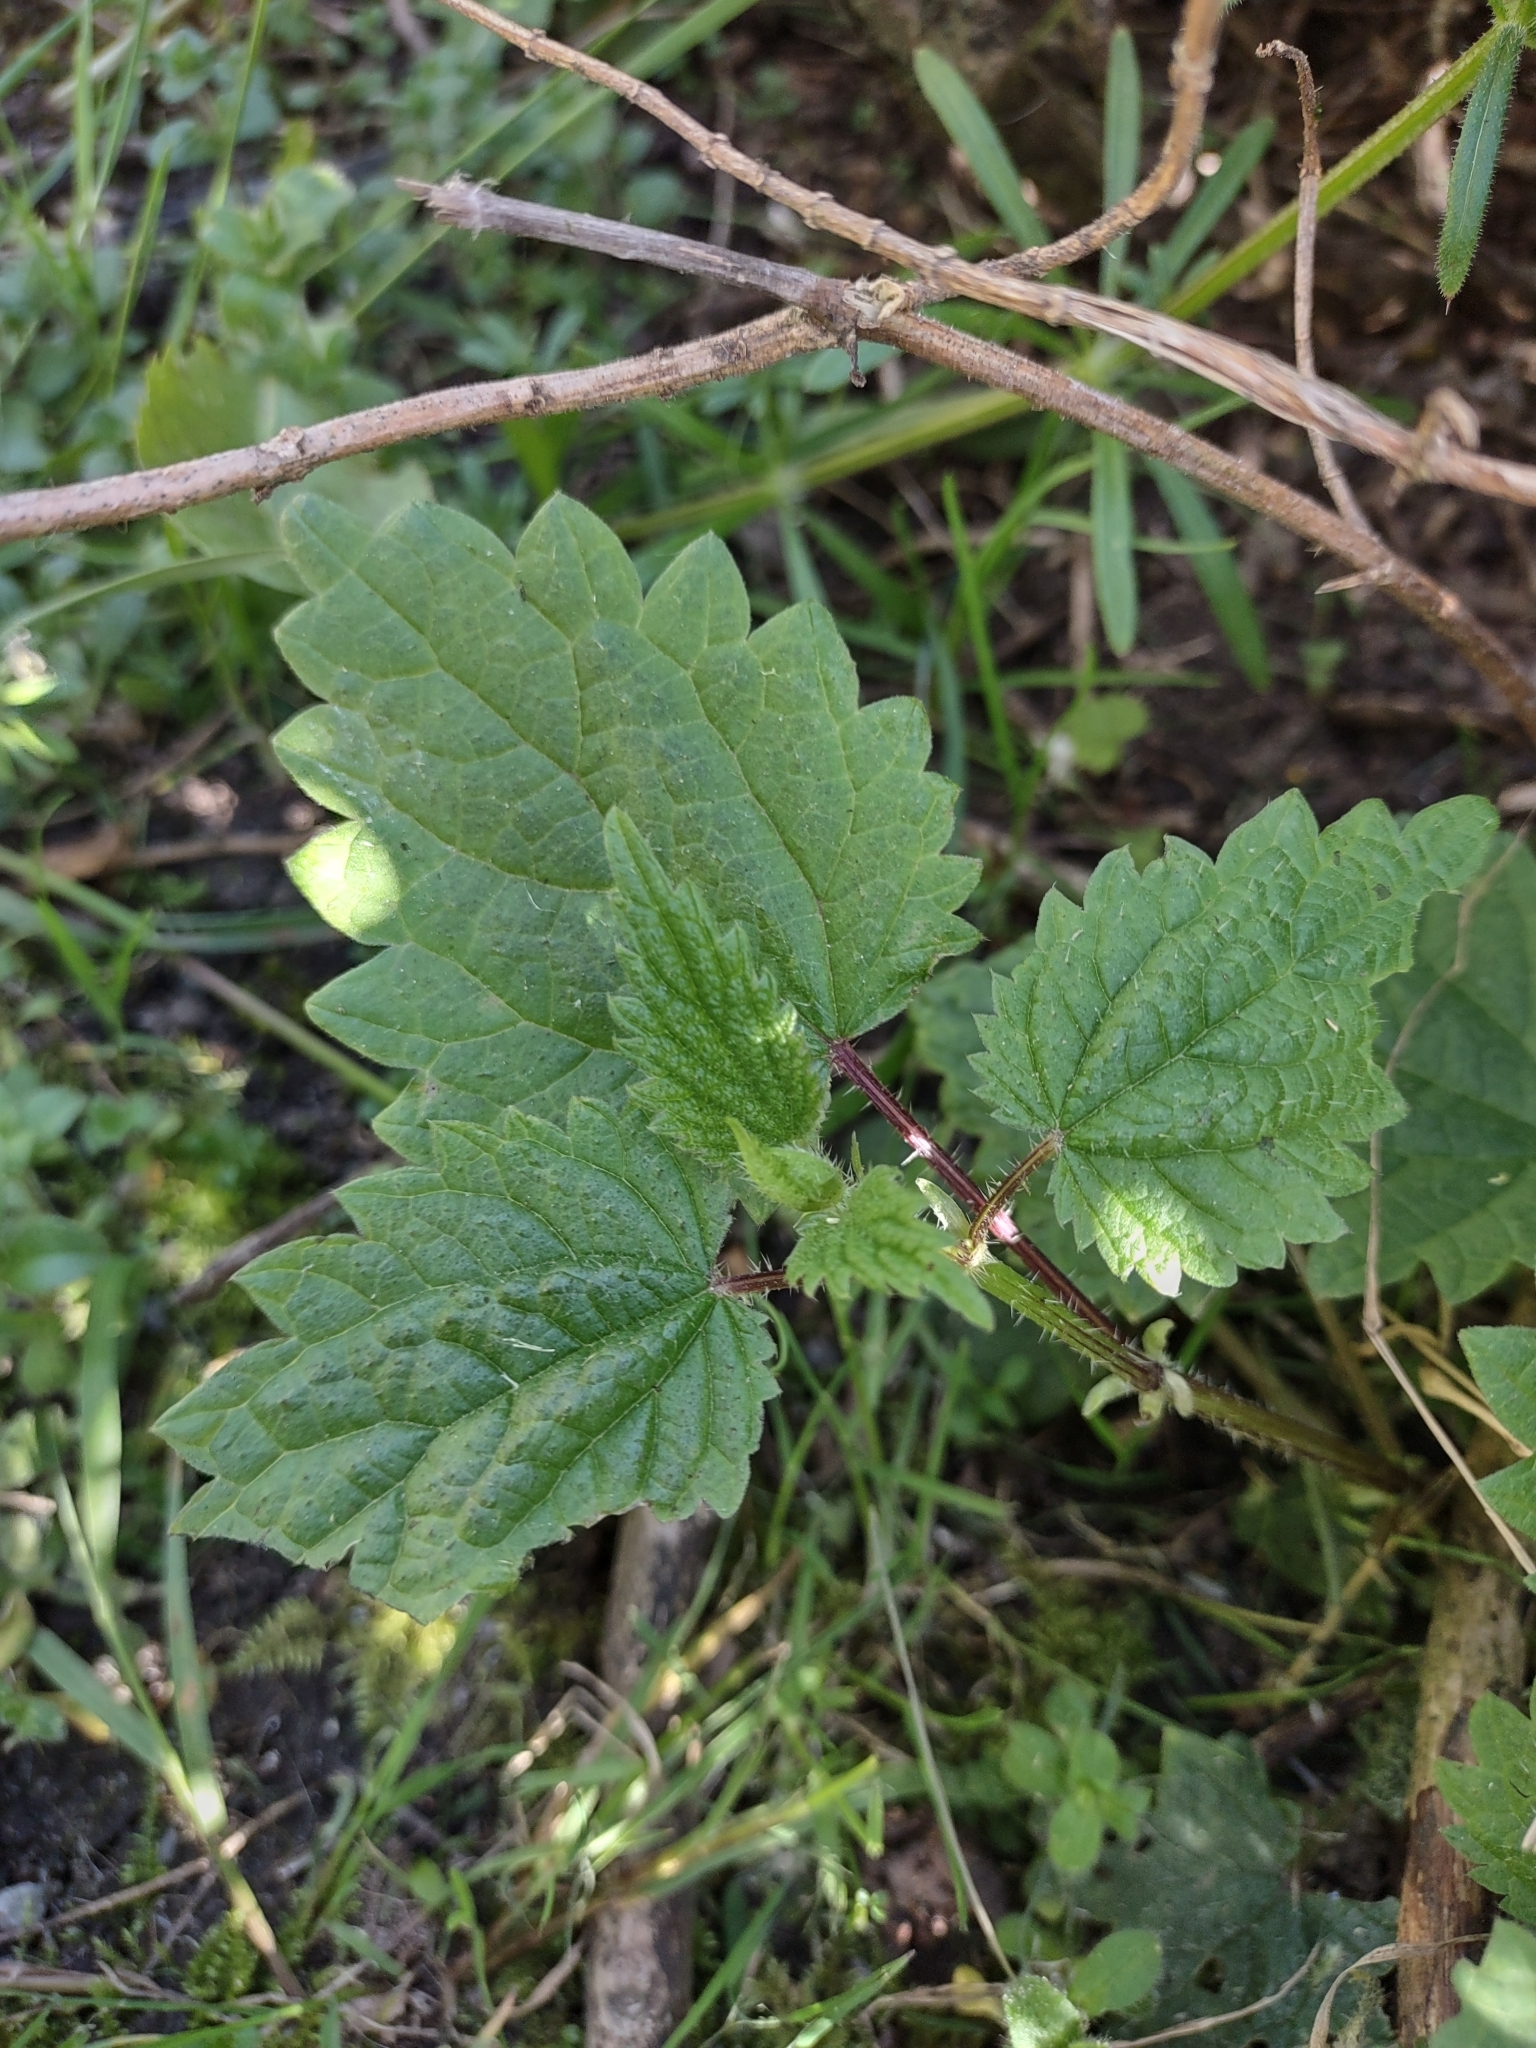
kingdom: Plantae
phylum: Tracheophyta
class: Magnoliopsida
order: Rosales
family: Urticaceae
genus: Urtica
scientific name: Urtica gracilis
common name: Slender stinging nettle
